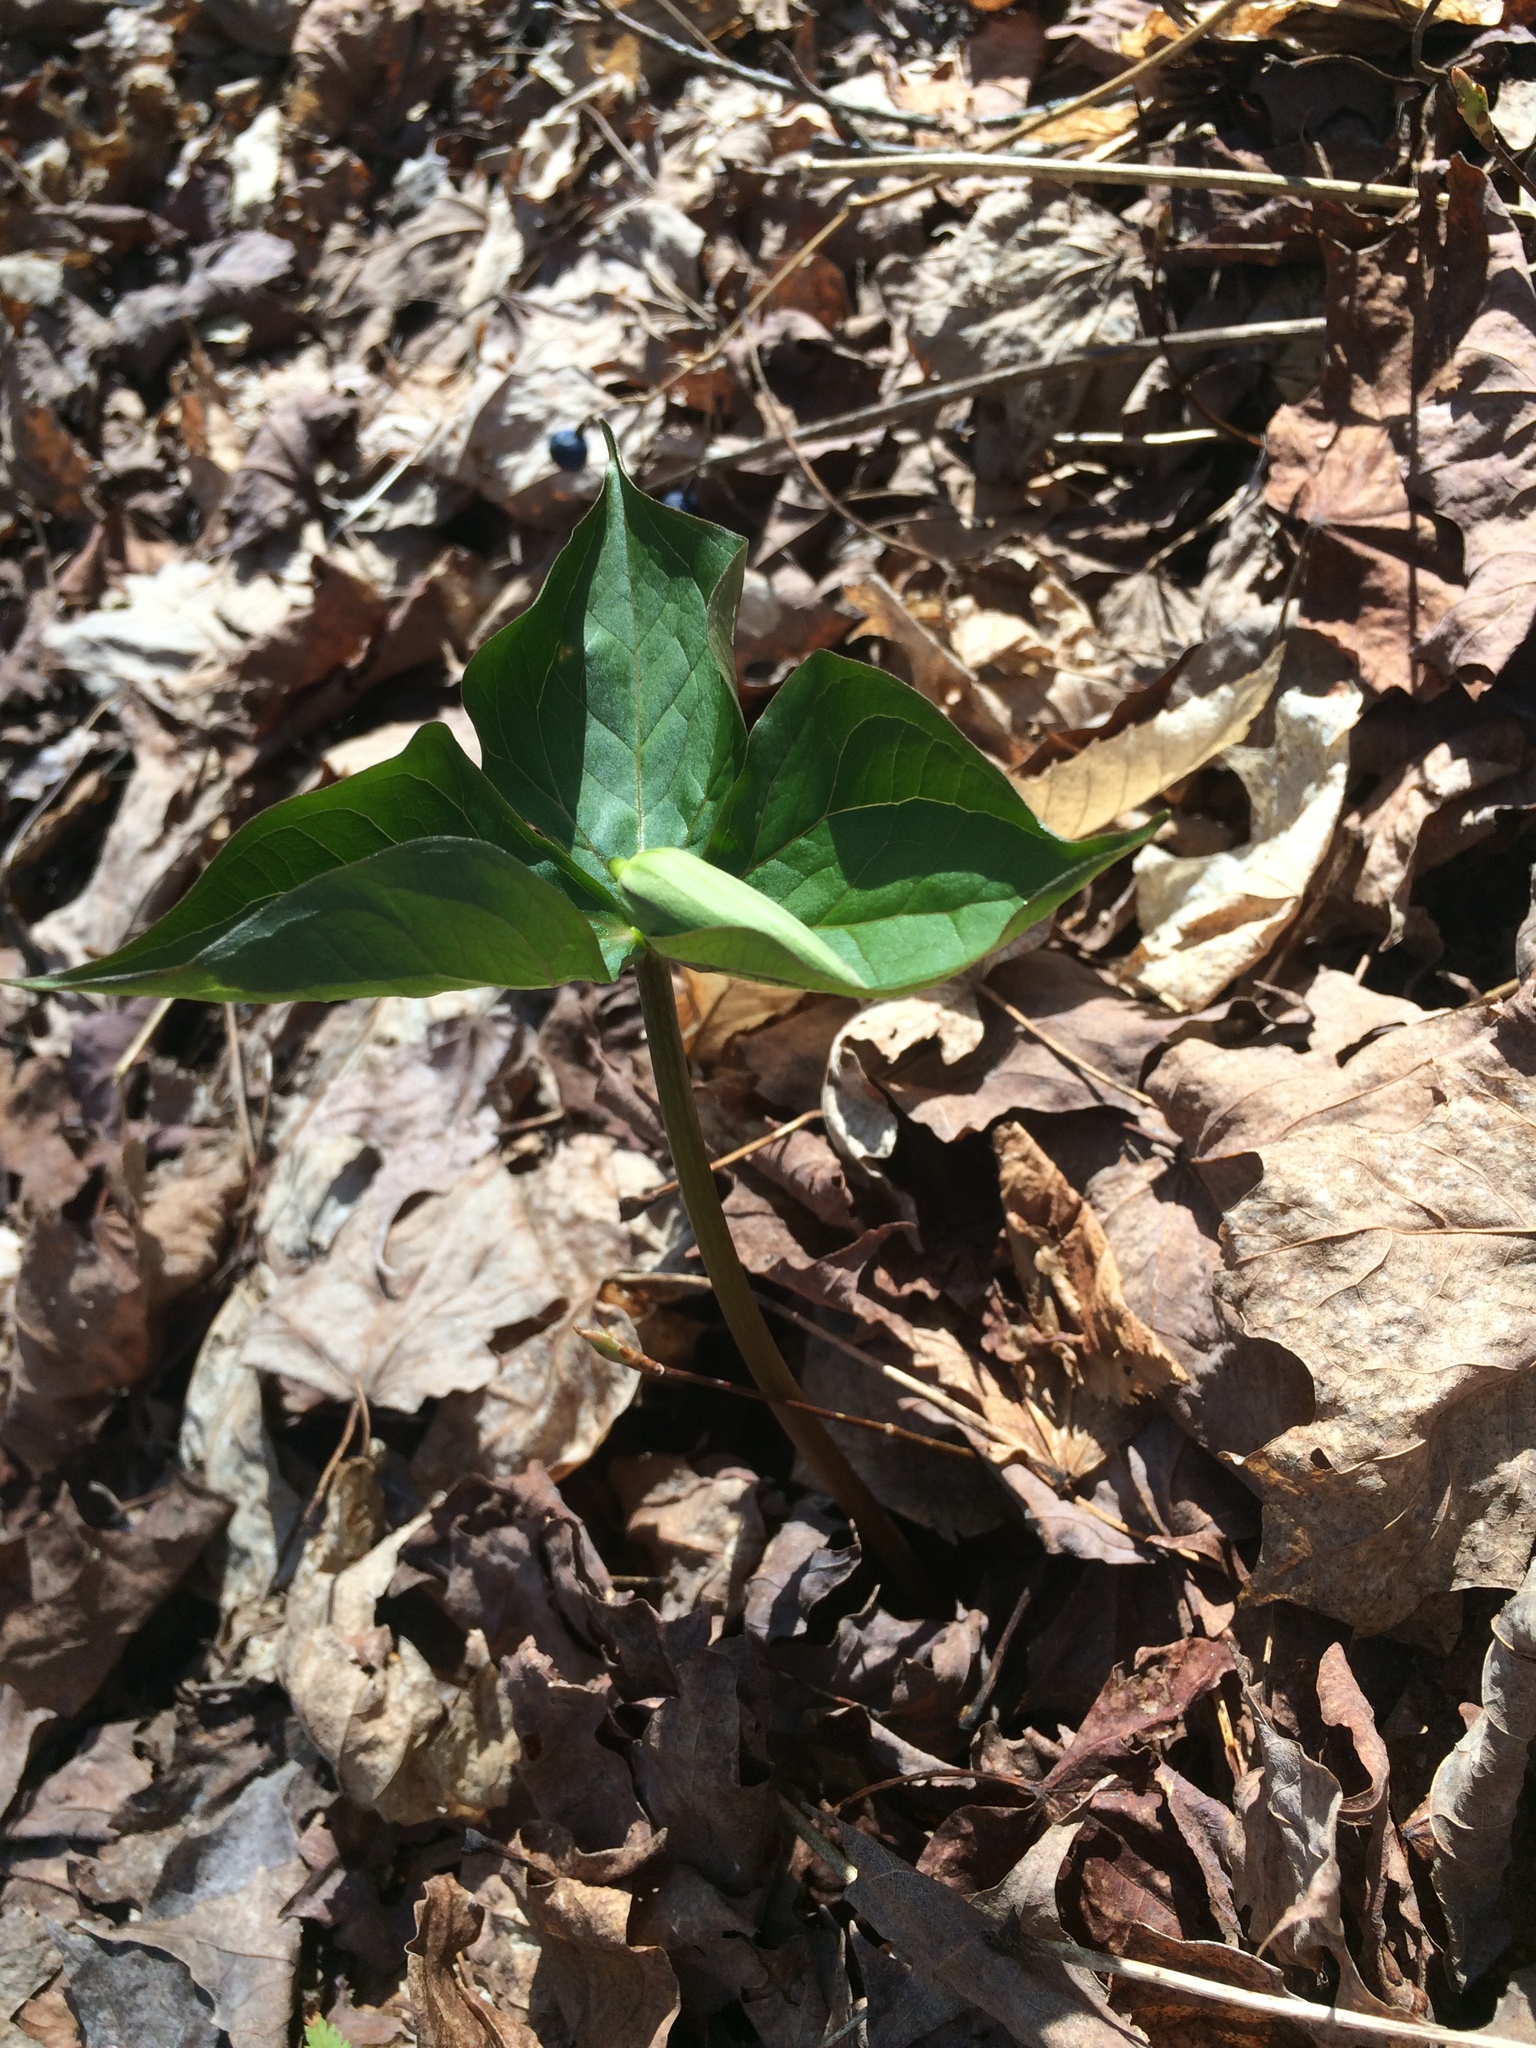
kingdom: Plantae
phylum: Tracheophyta
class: Liliopsida
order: Liliales
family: Melanthiaceae
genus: Trillium
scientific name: Trillium erectum
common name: Purple trillium
